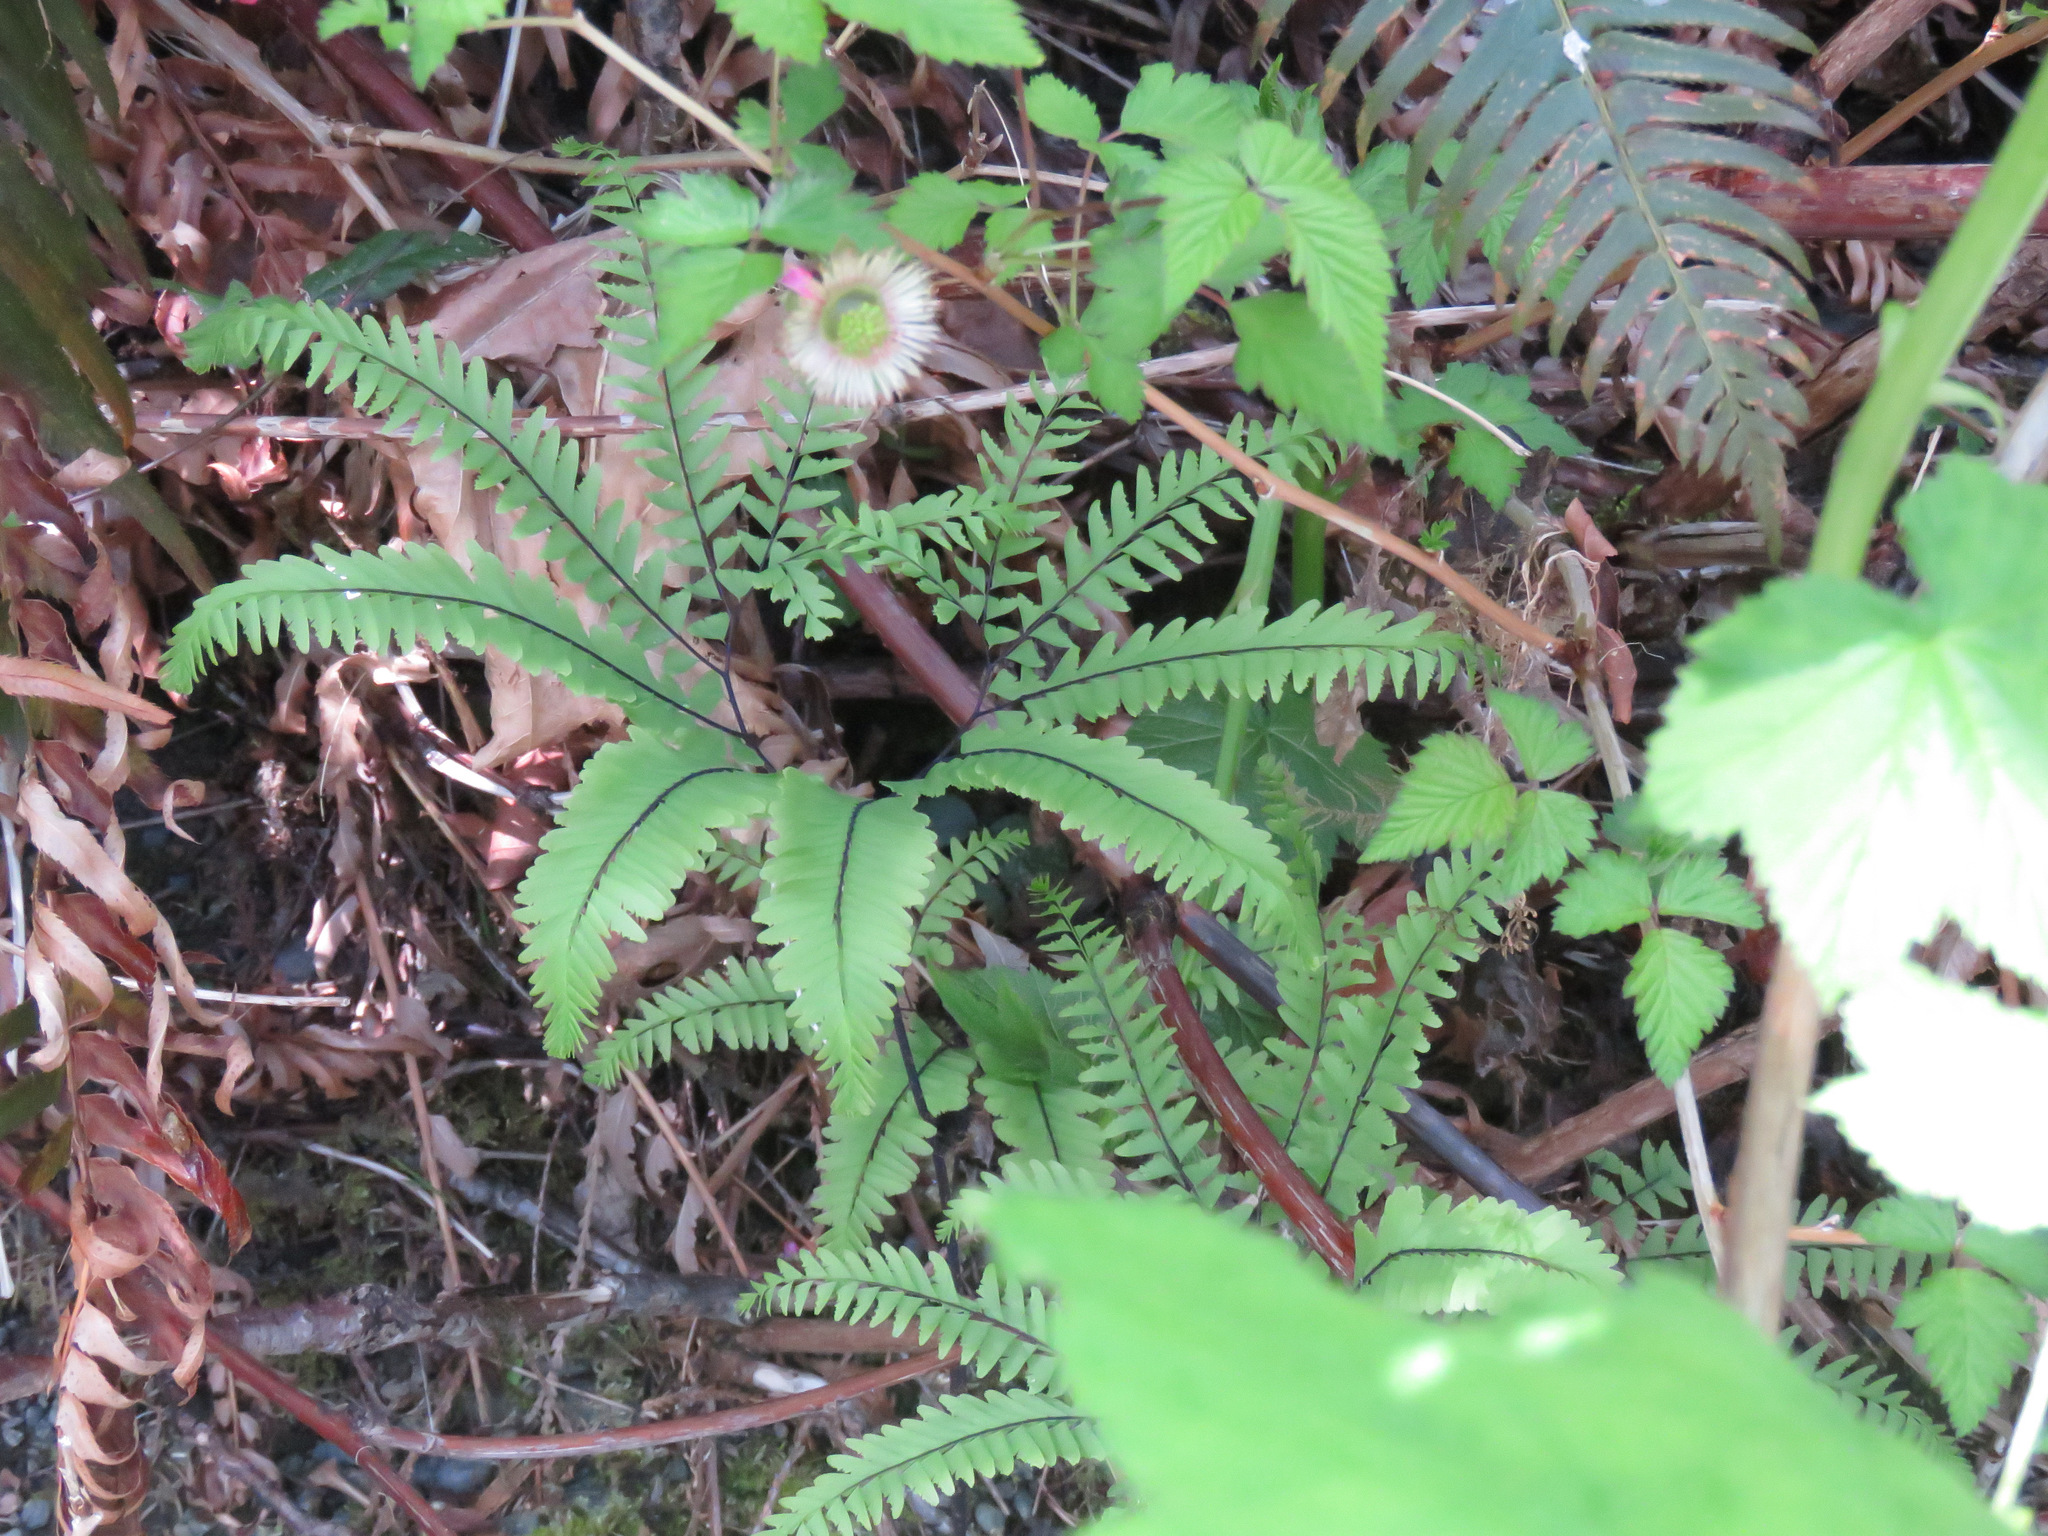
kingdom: Plantae
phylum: Tracheophyta
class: Polypodiopsida
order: Polypodiales
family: Pteridaceae
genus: Adiantum
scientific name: Adiantum aleuticum
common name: Aleutian maidenhair fern
